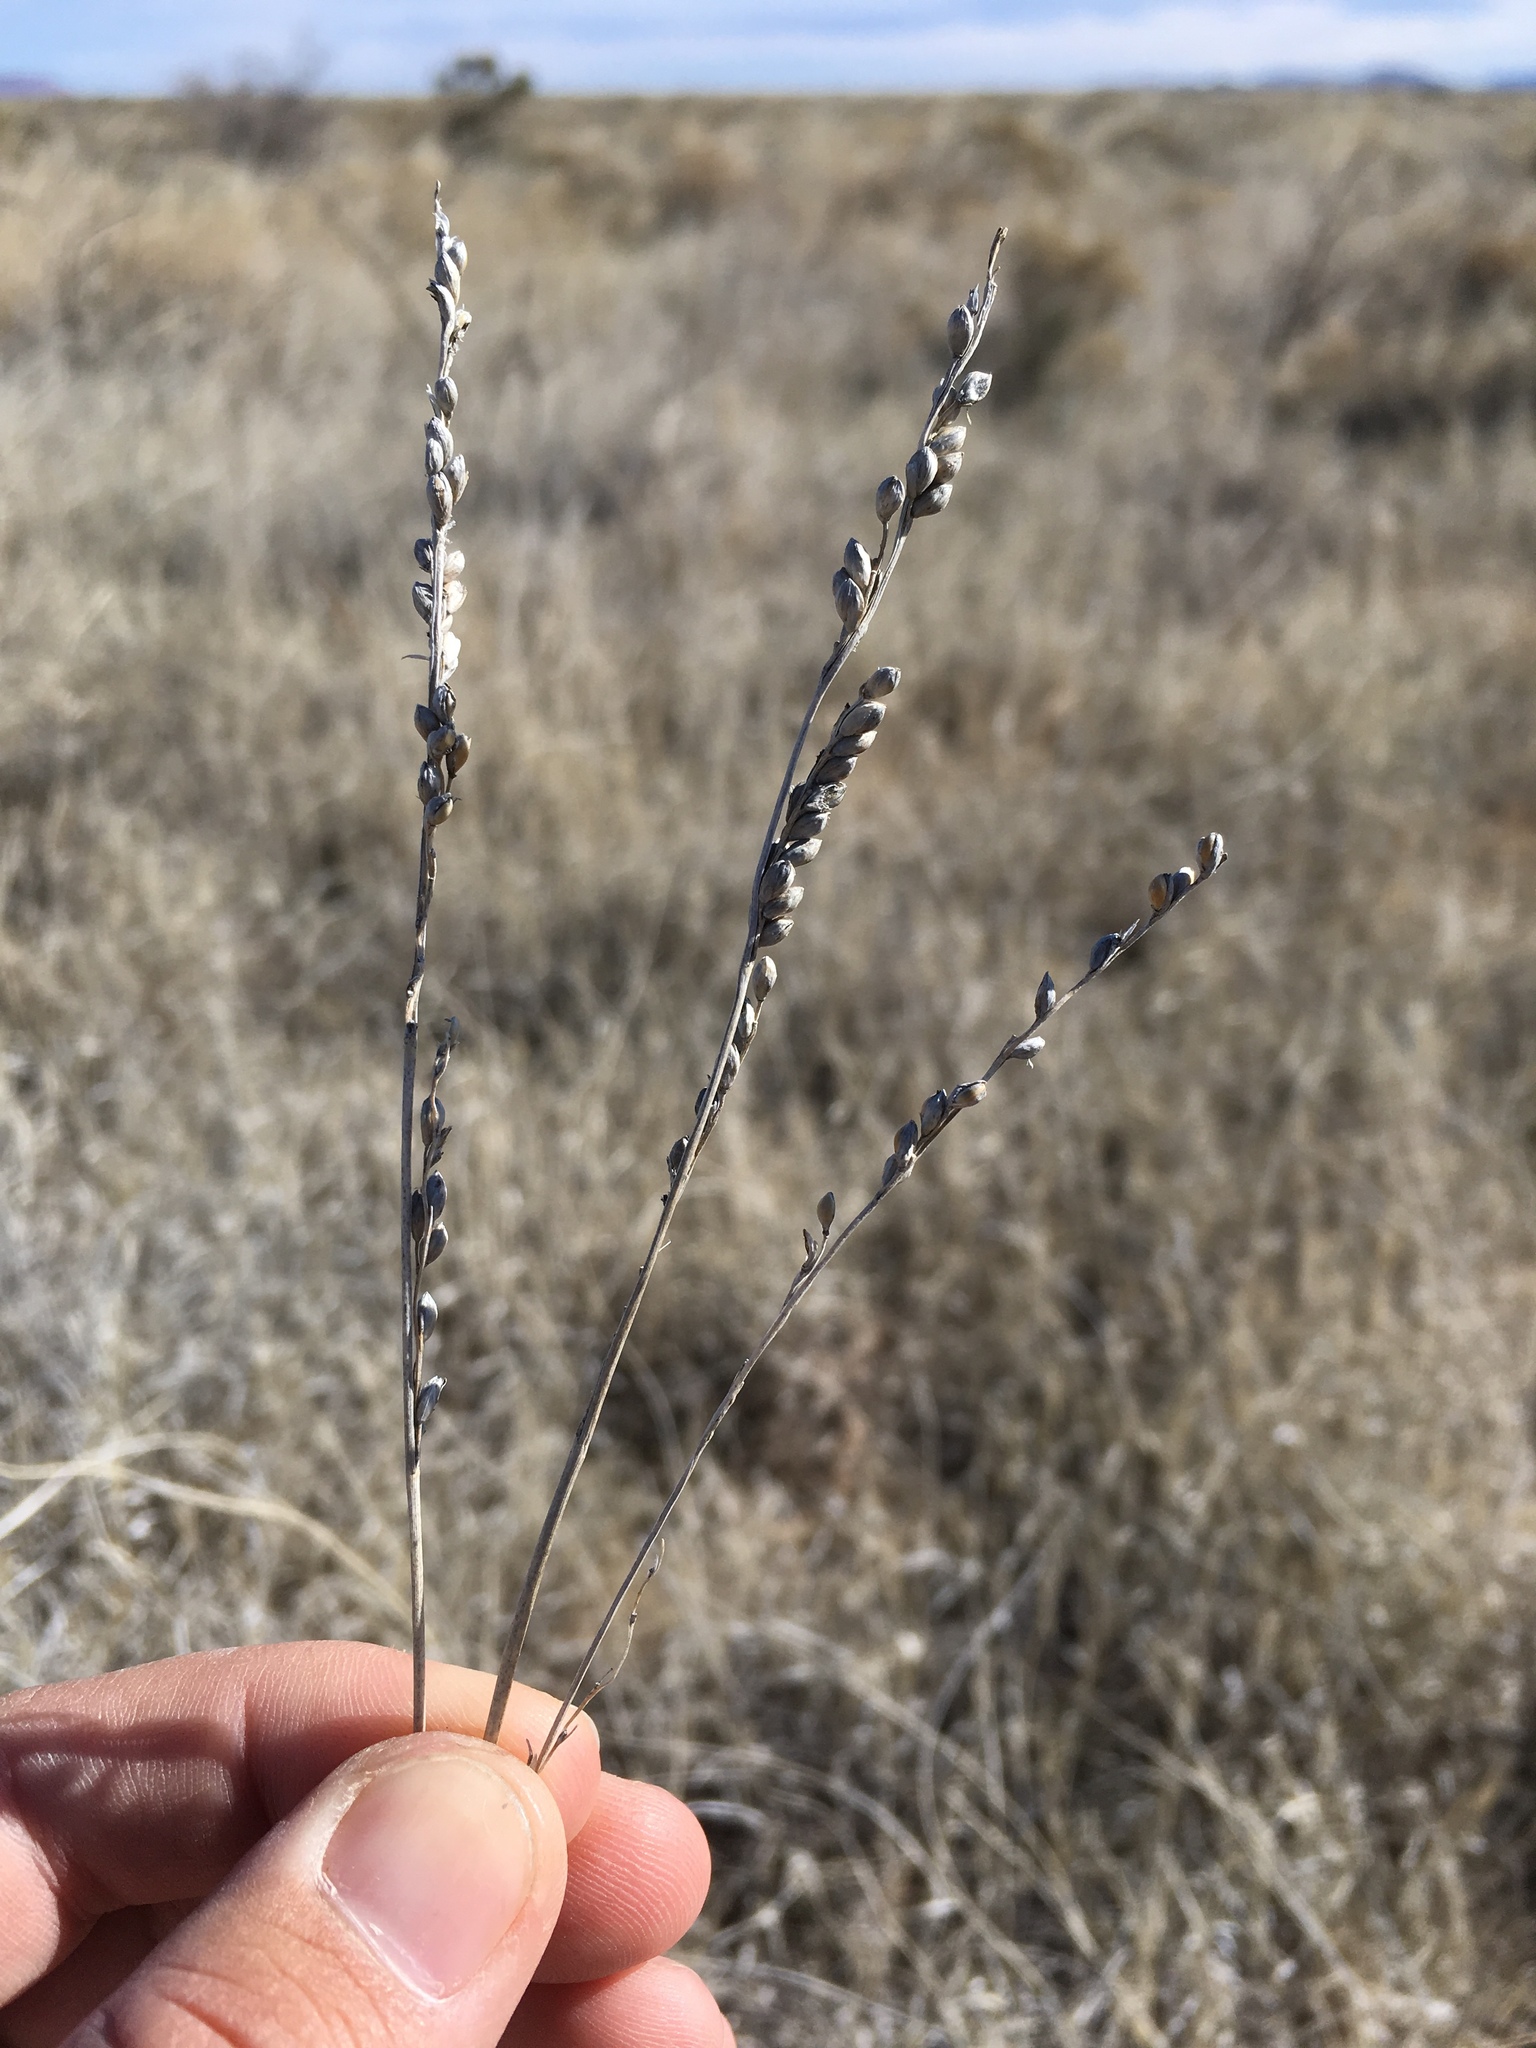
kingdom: Plantae
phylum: Tracheophyta
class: Liliopsida
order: Poales
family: Poaceae
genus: Hopia
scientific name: Hopia obtusa
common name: Vine-mesquite
